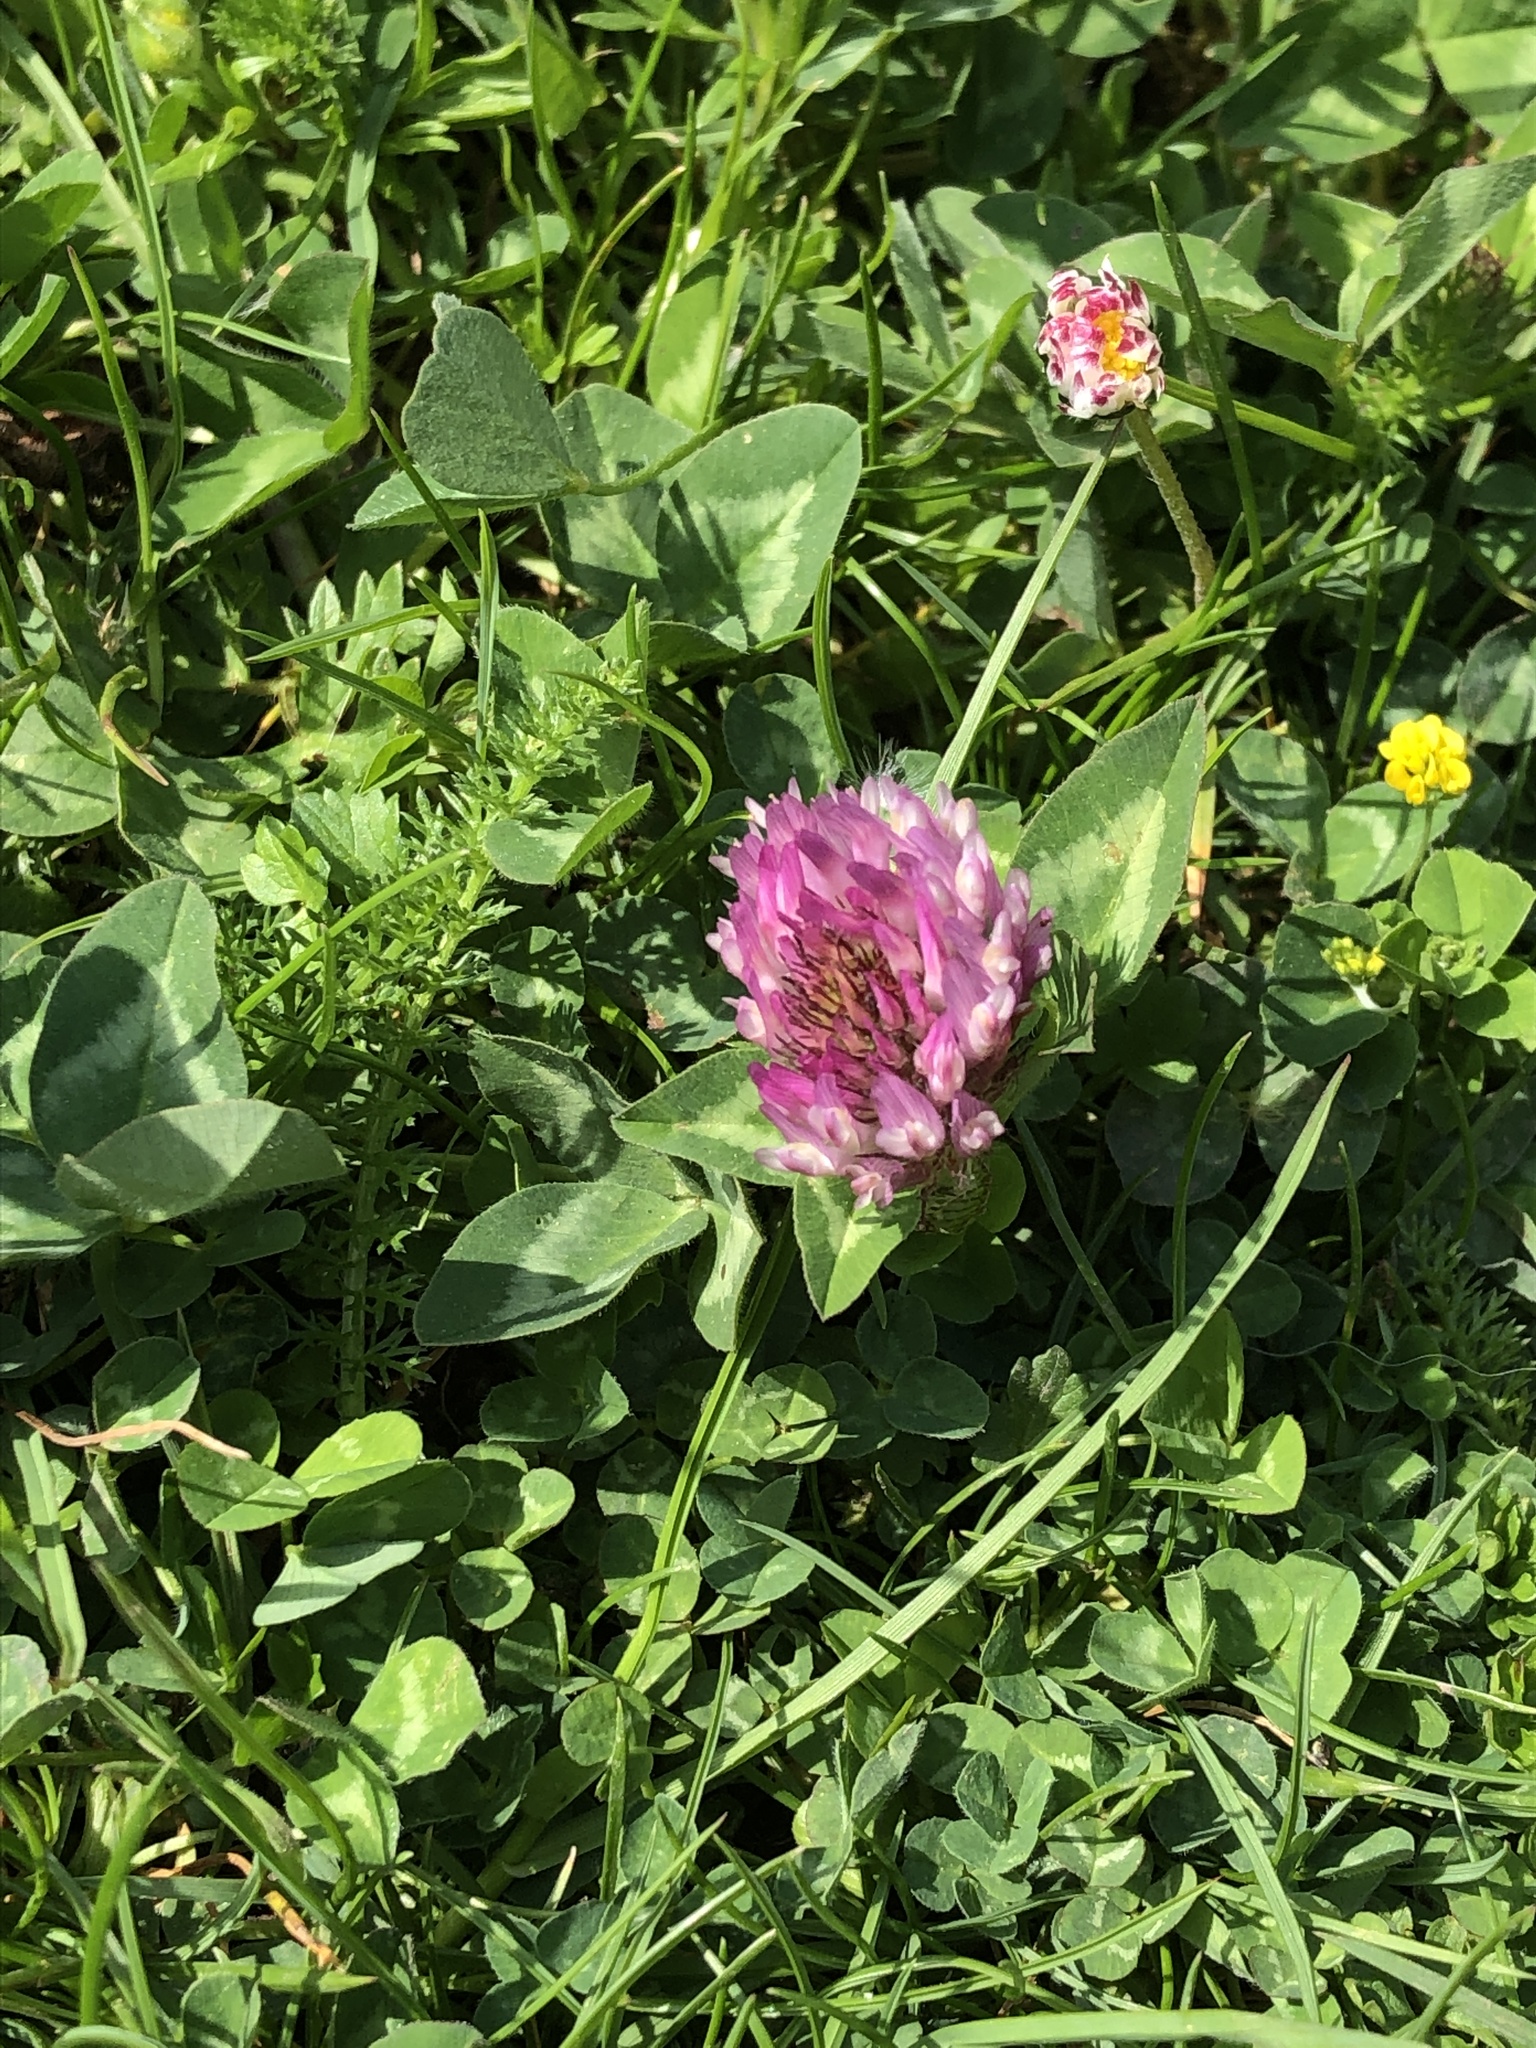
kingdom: Plantae
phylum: Tracheophyta
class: Magnoliopsida
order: Fabales
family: Fabaceae
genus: Trifolium
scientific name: Trifolium pratense
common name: Red clover
